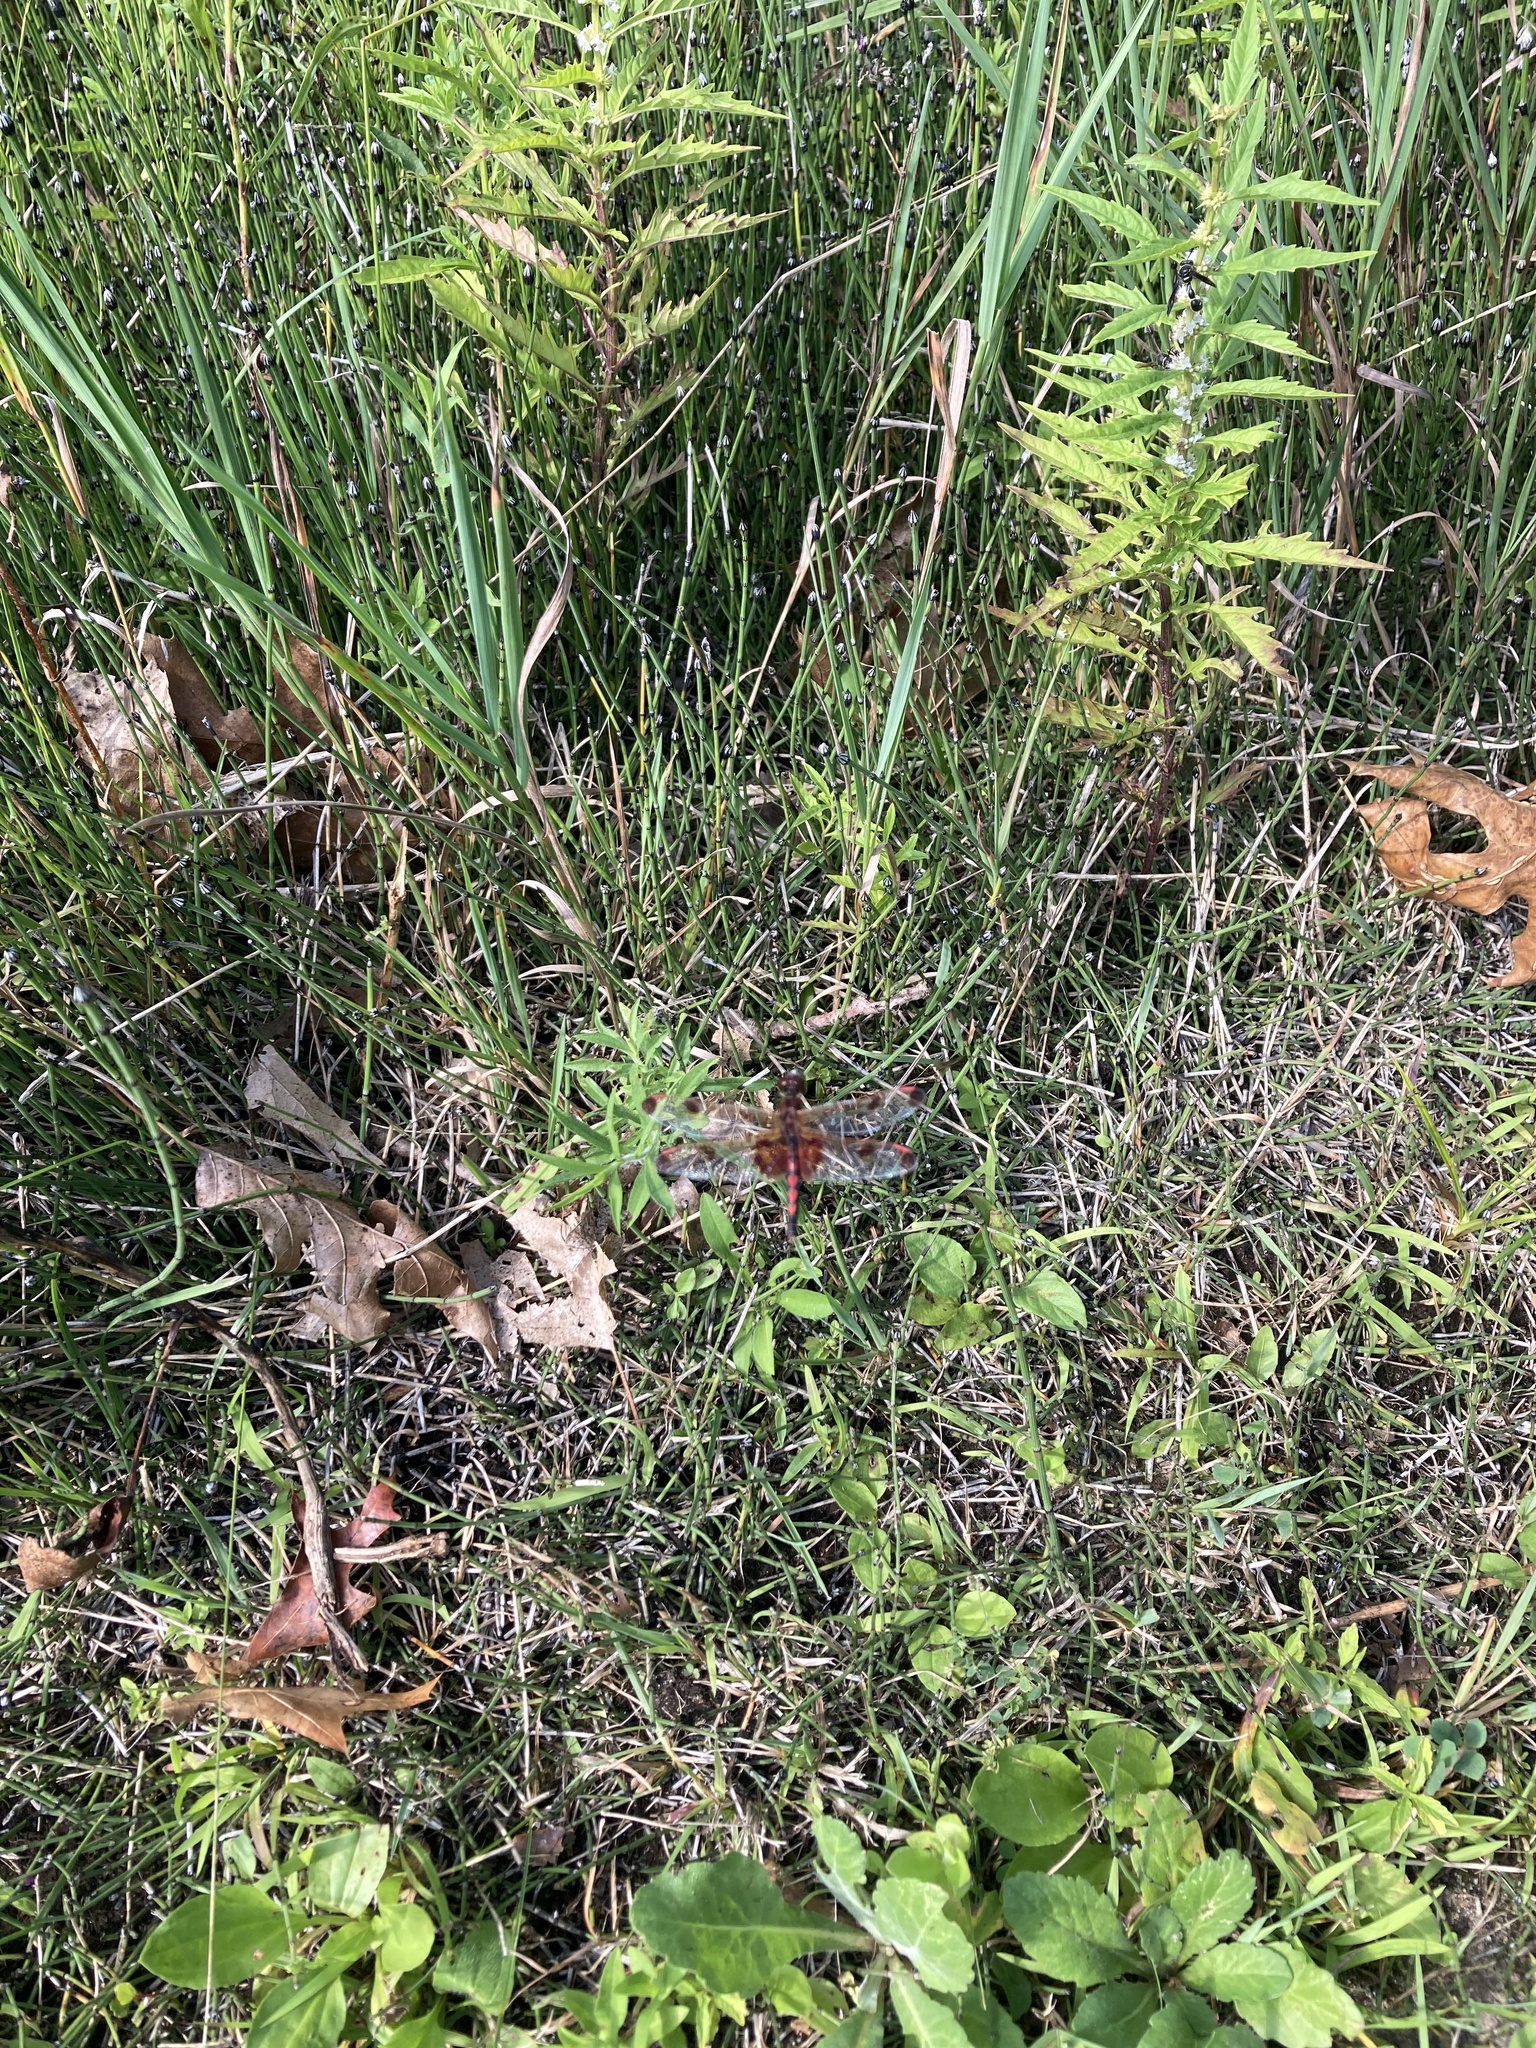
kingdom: Animalia
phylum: Arthropoda
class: Insecta
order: Odonata
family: Libellulidae
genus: Celithemis
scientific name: Celithemis elisa
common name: Calico pennant
